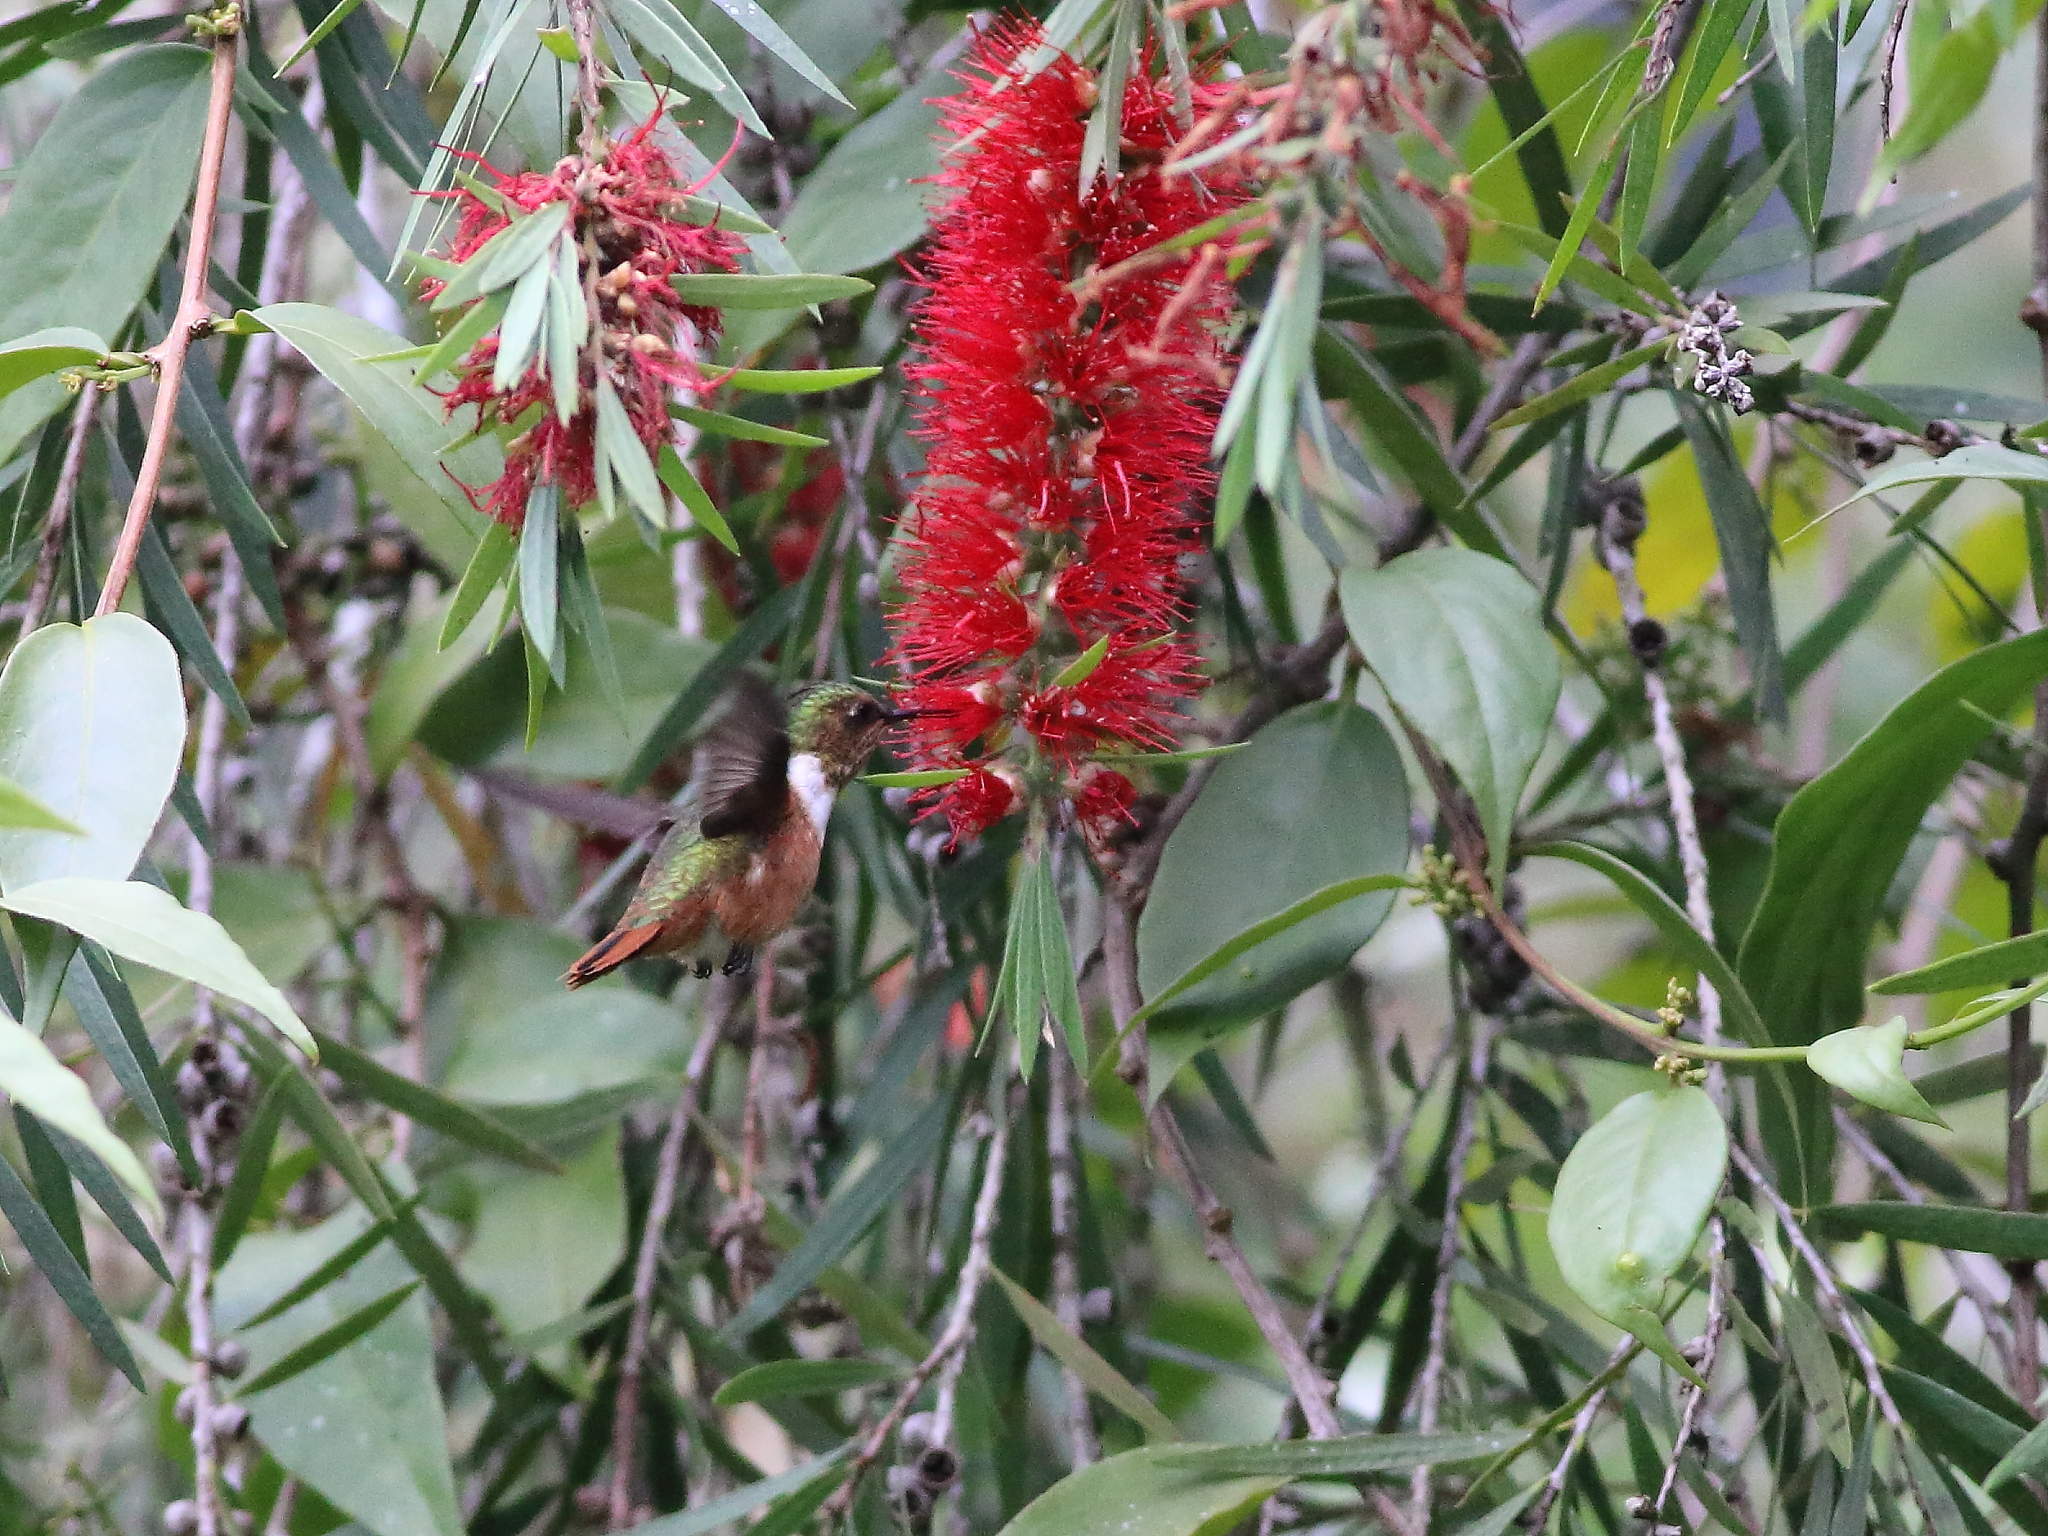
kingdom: Animalia
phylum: Chordata
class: Aves
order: Apodiformes
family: Trochilidae
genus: Selasphorus
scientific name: Selasphorus scintilla
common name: Scintillant hummingbird
